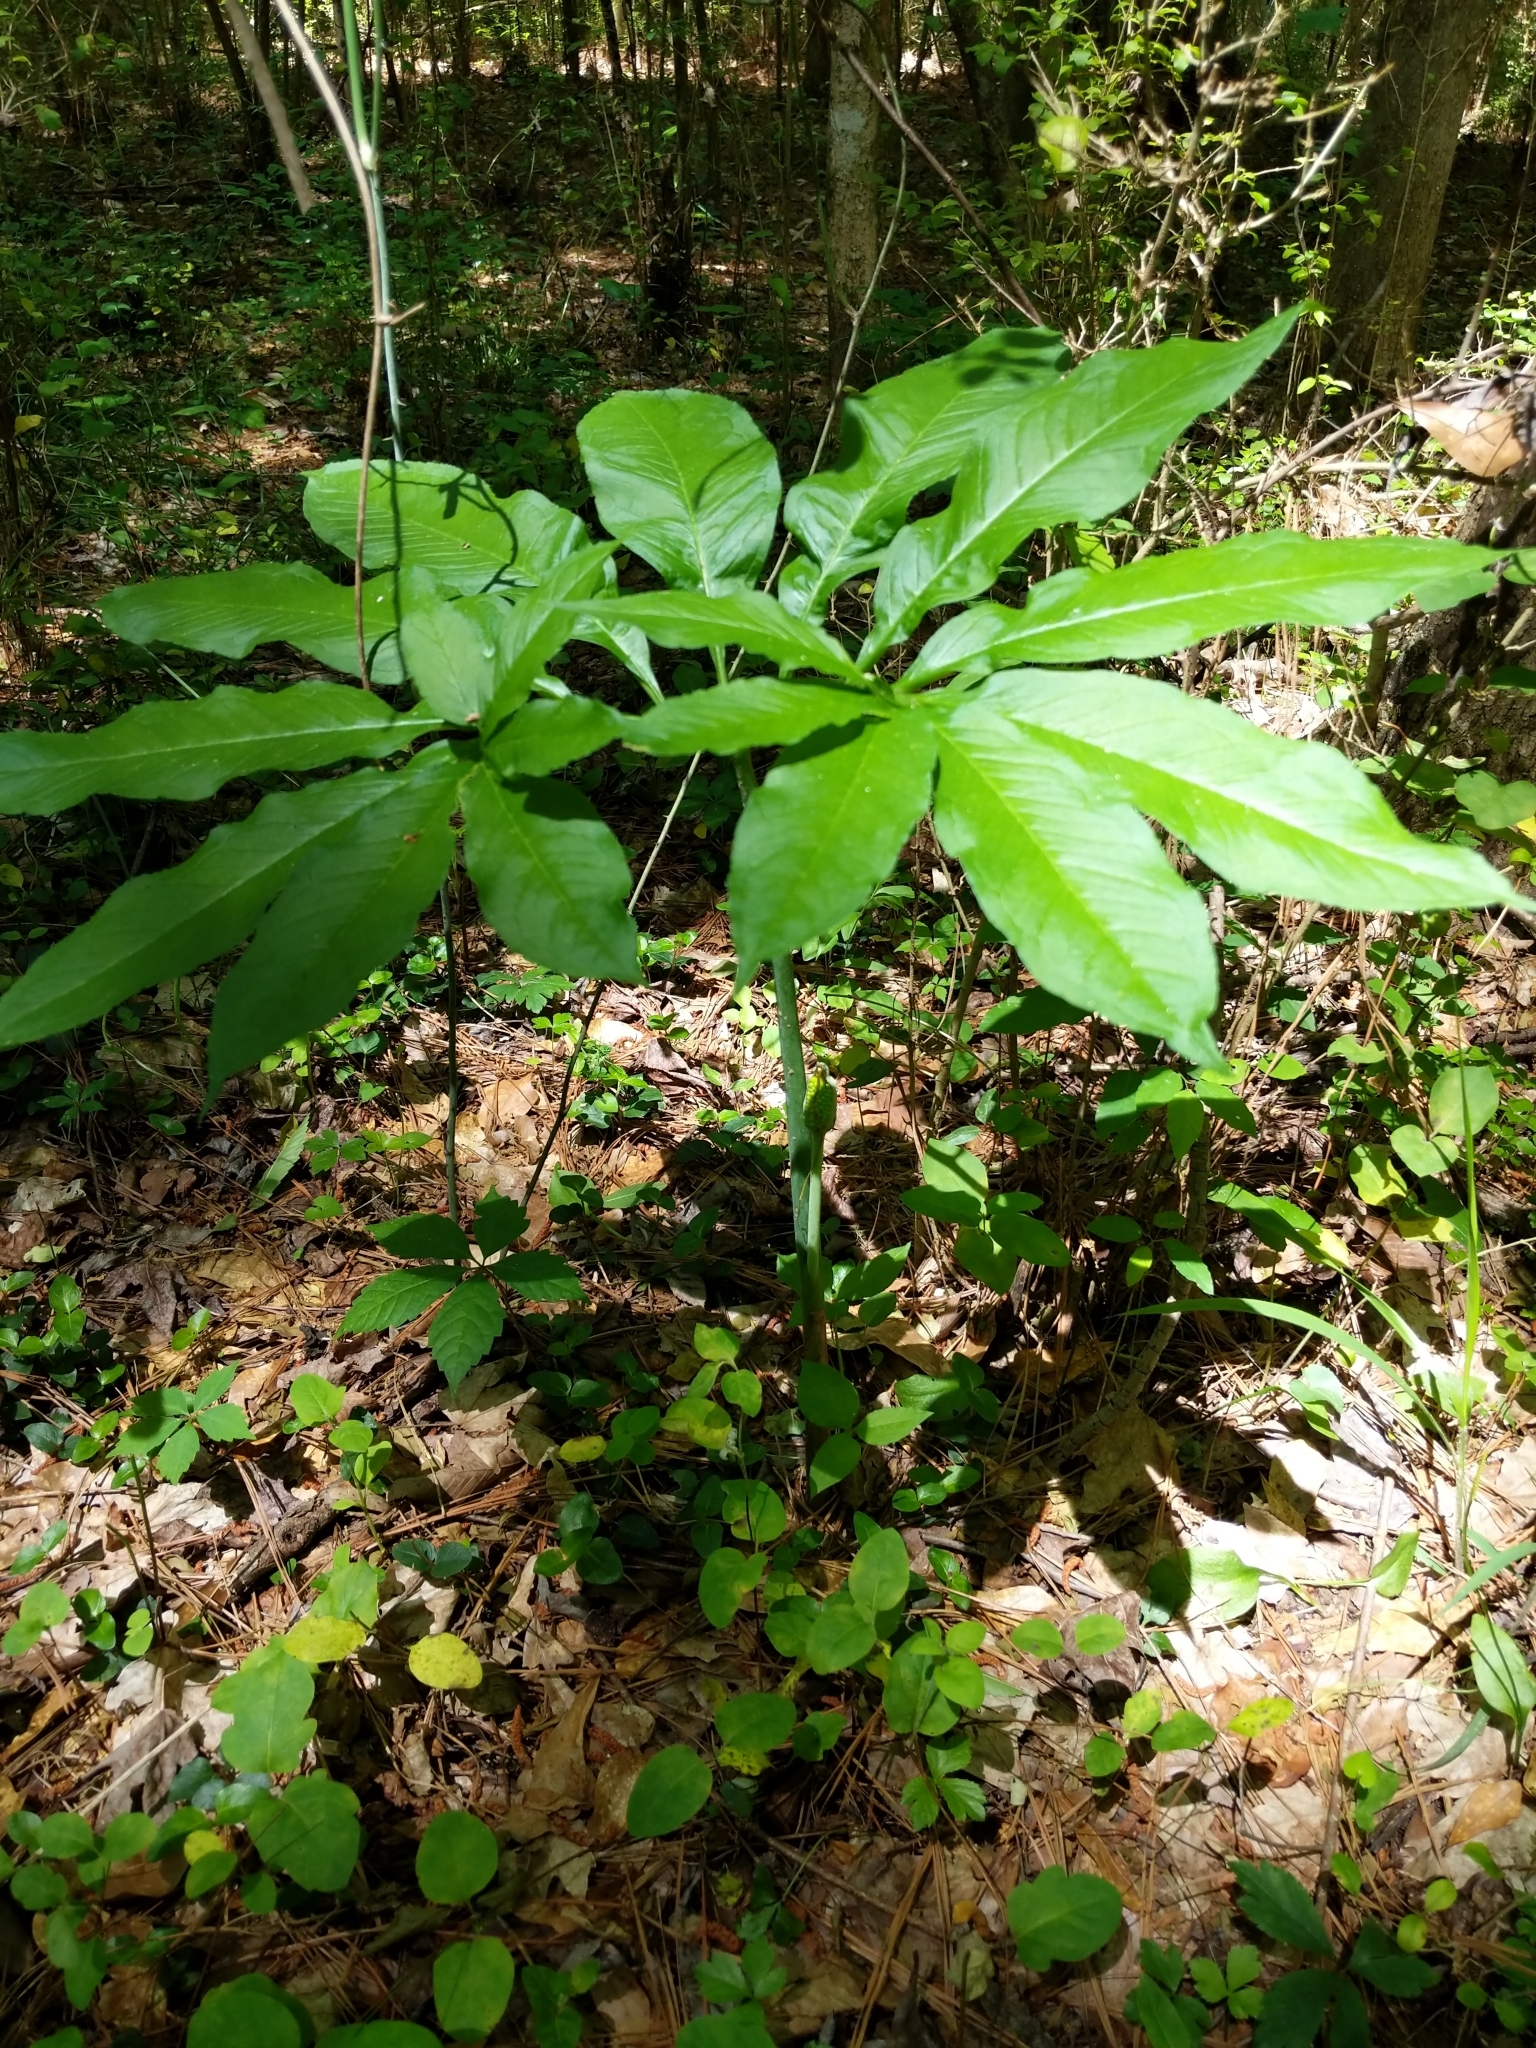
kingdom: Plantae
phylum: Tracheophyta
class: Liliopsida
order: Alismatales
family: Araceae
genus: Arisaema
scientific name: Arisaema dracontium
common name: Dragon-arum
